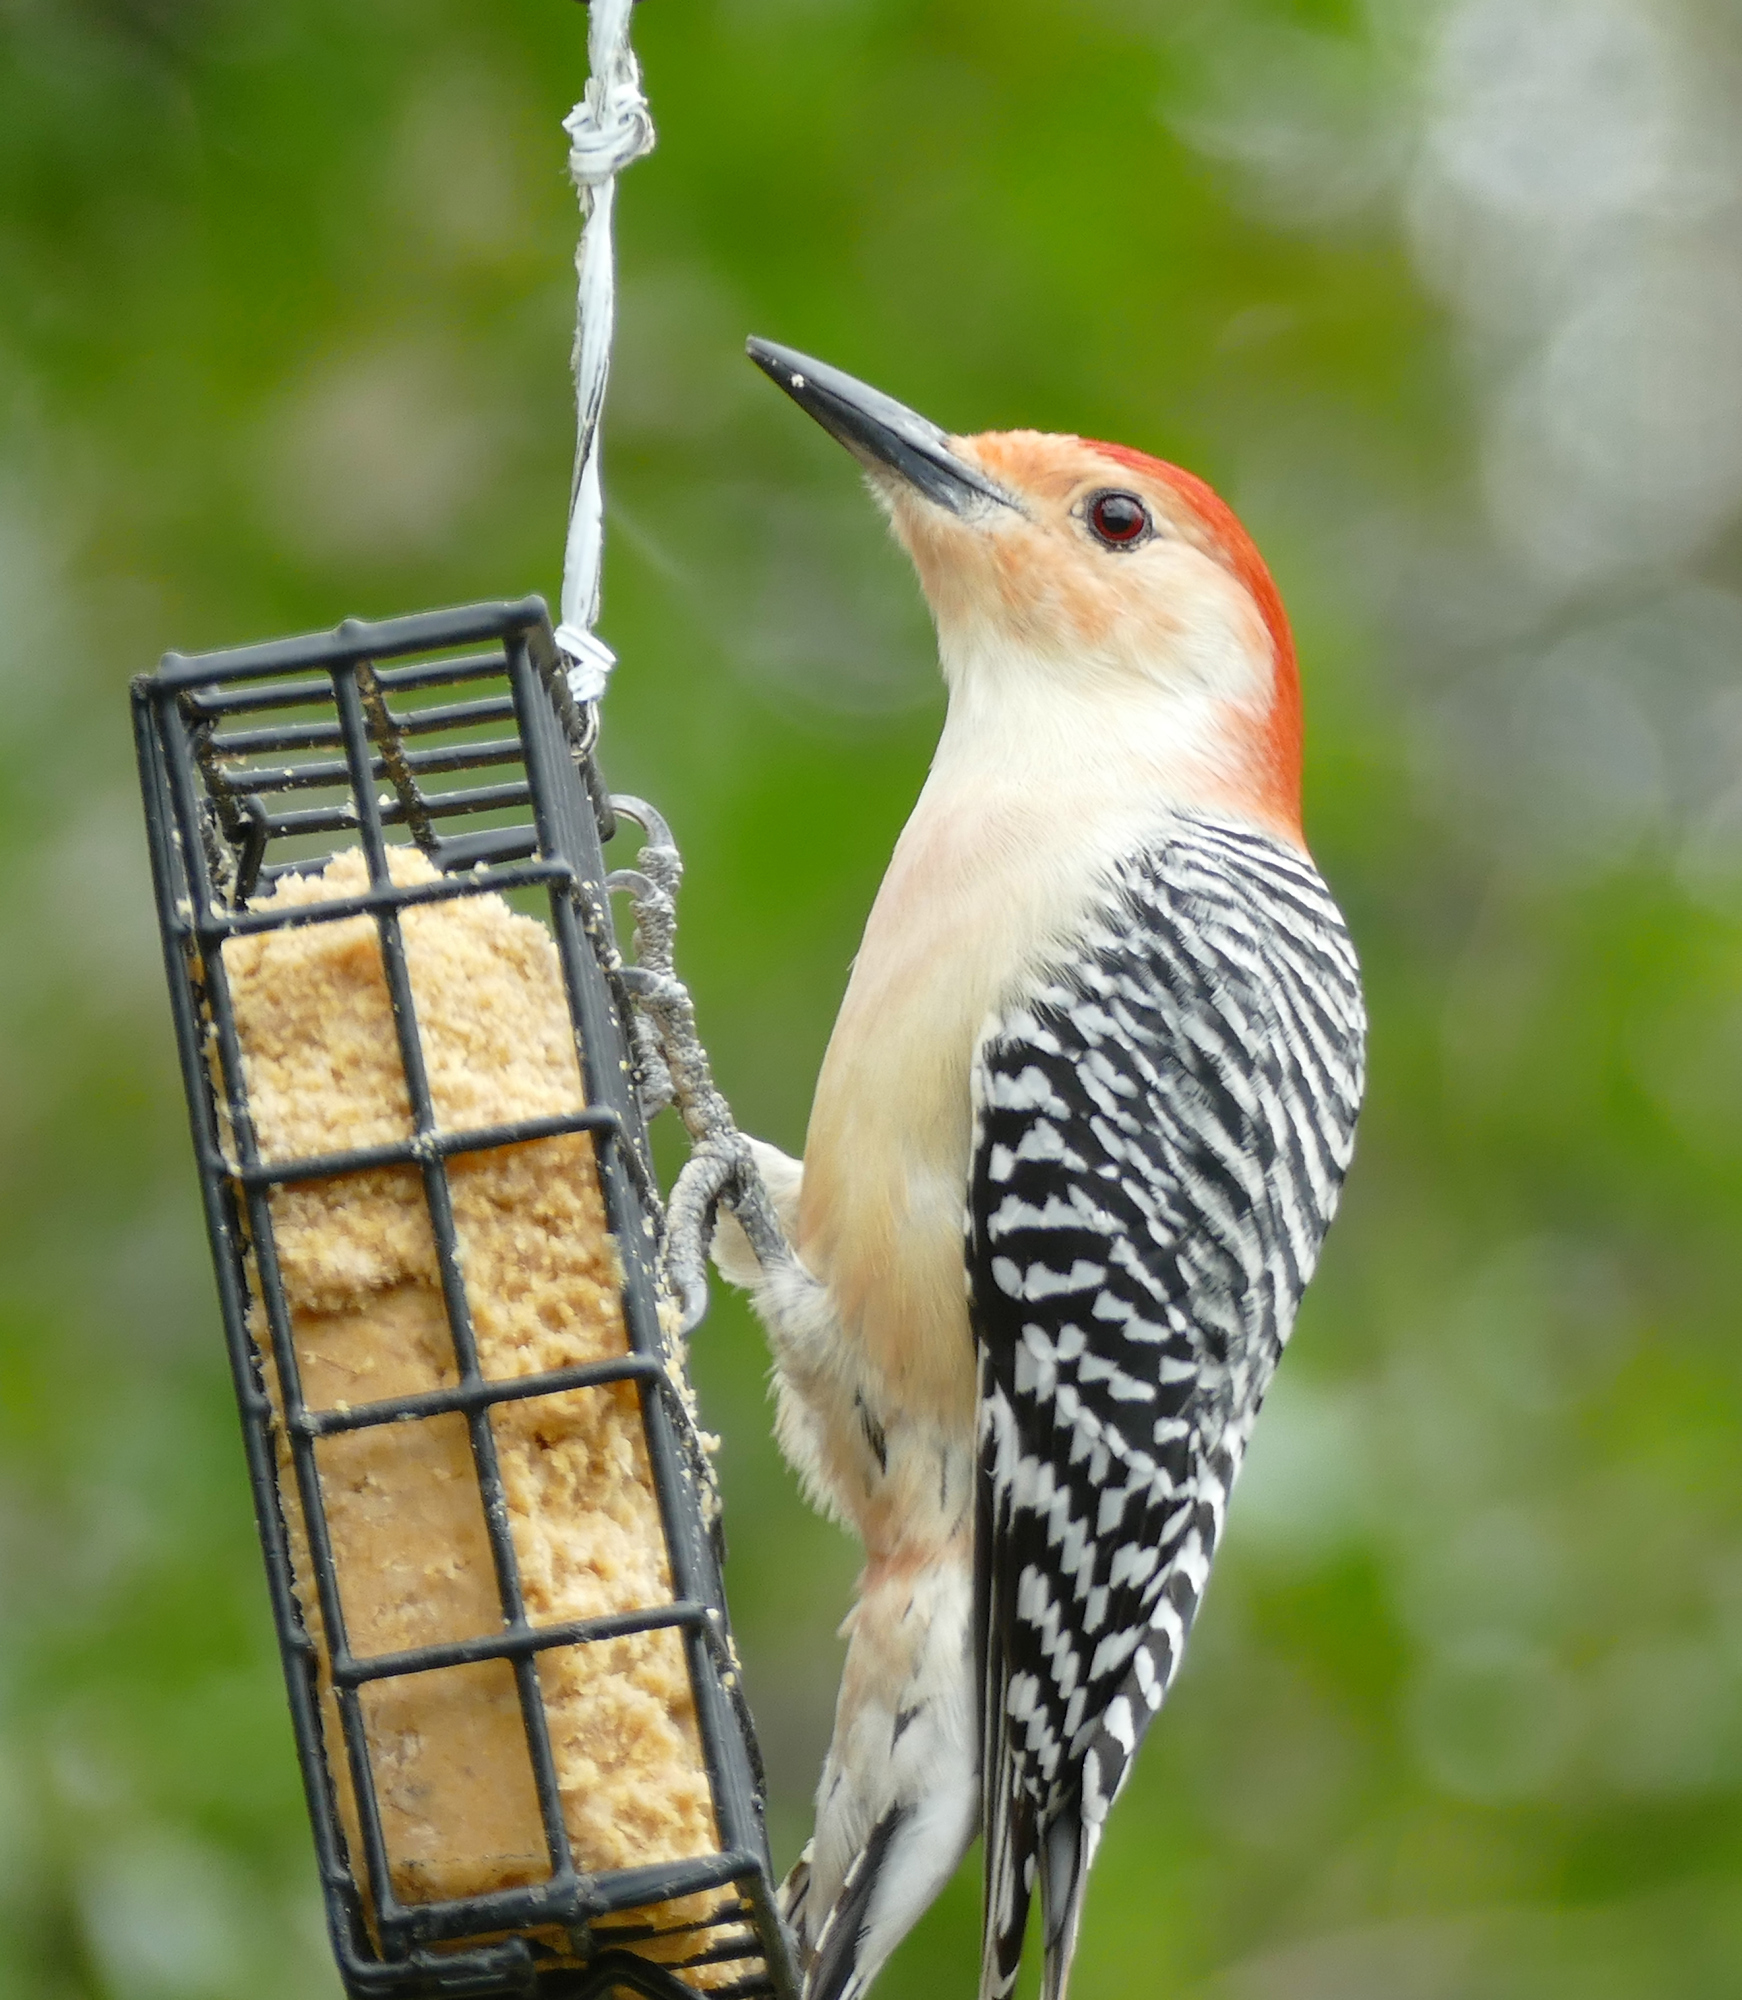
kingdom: Animalia
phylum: Chordata
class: Aves
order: Piciformes
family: Picidae
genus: Melanerpes
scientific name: Melanerpes carolinus
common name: Red-bellied woodpecker
